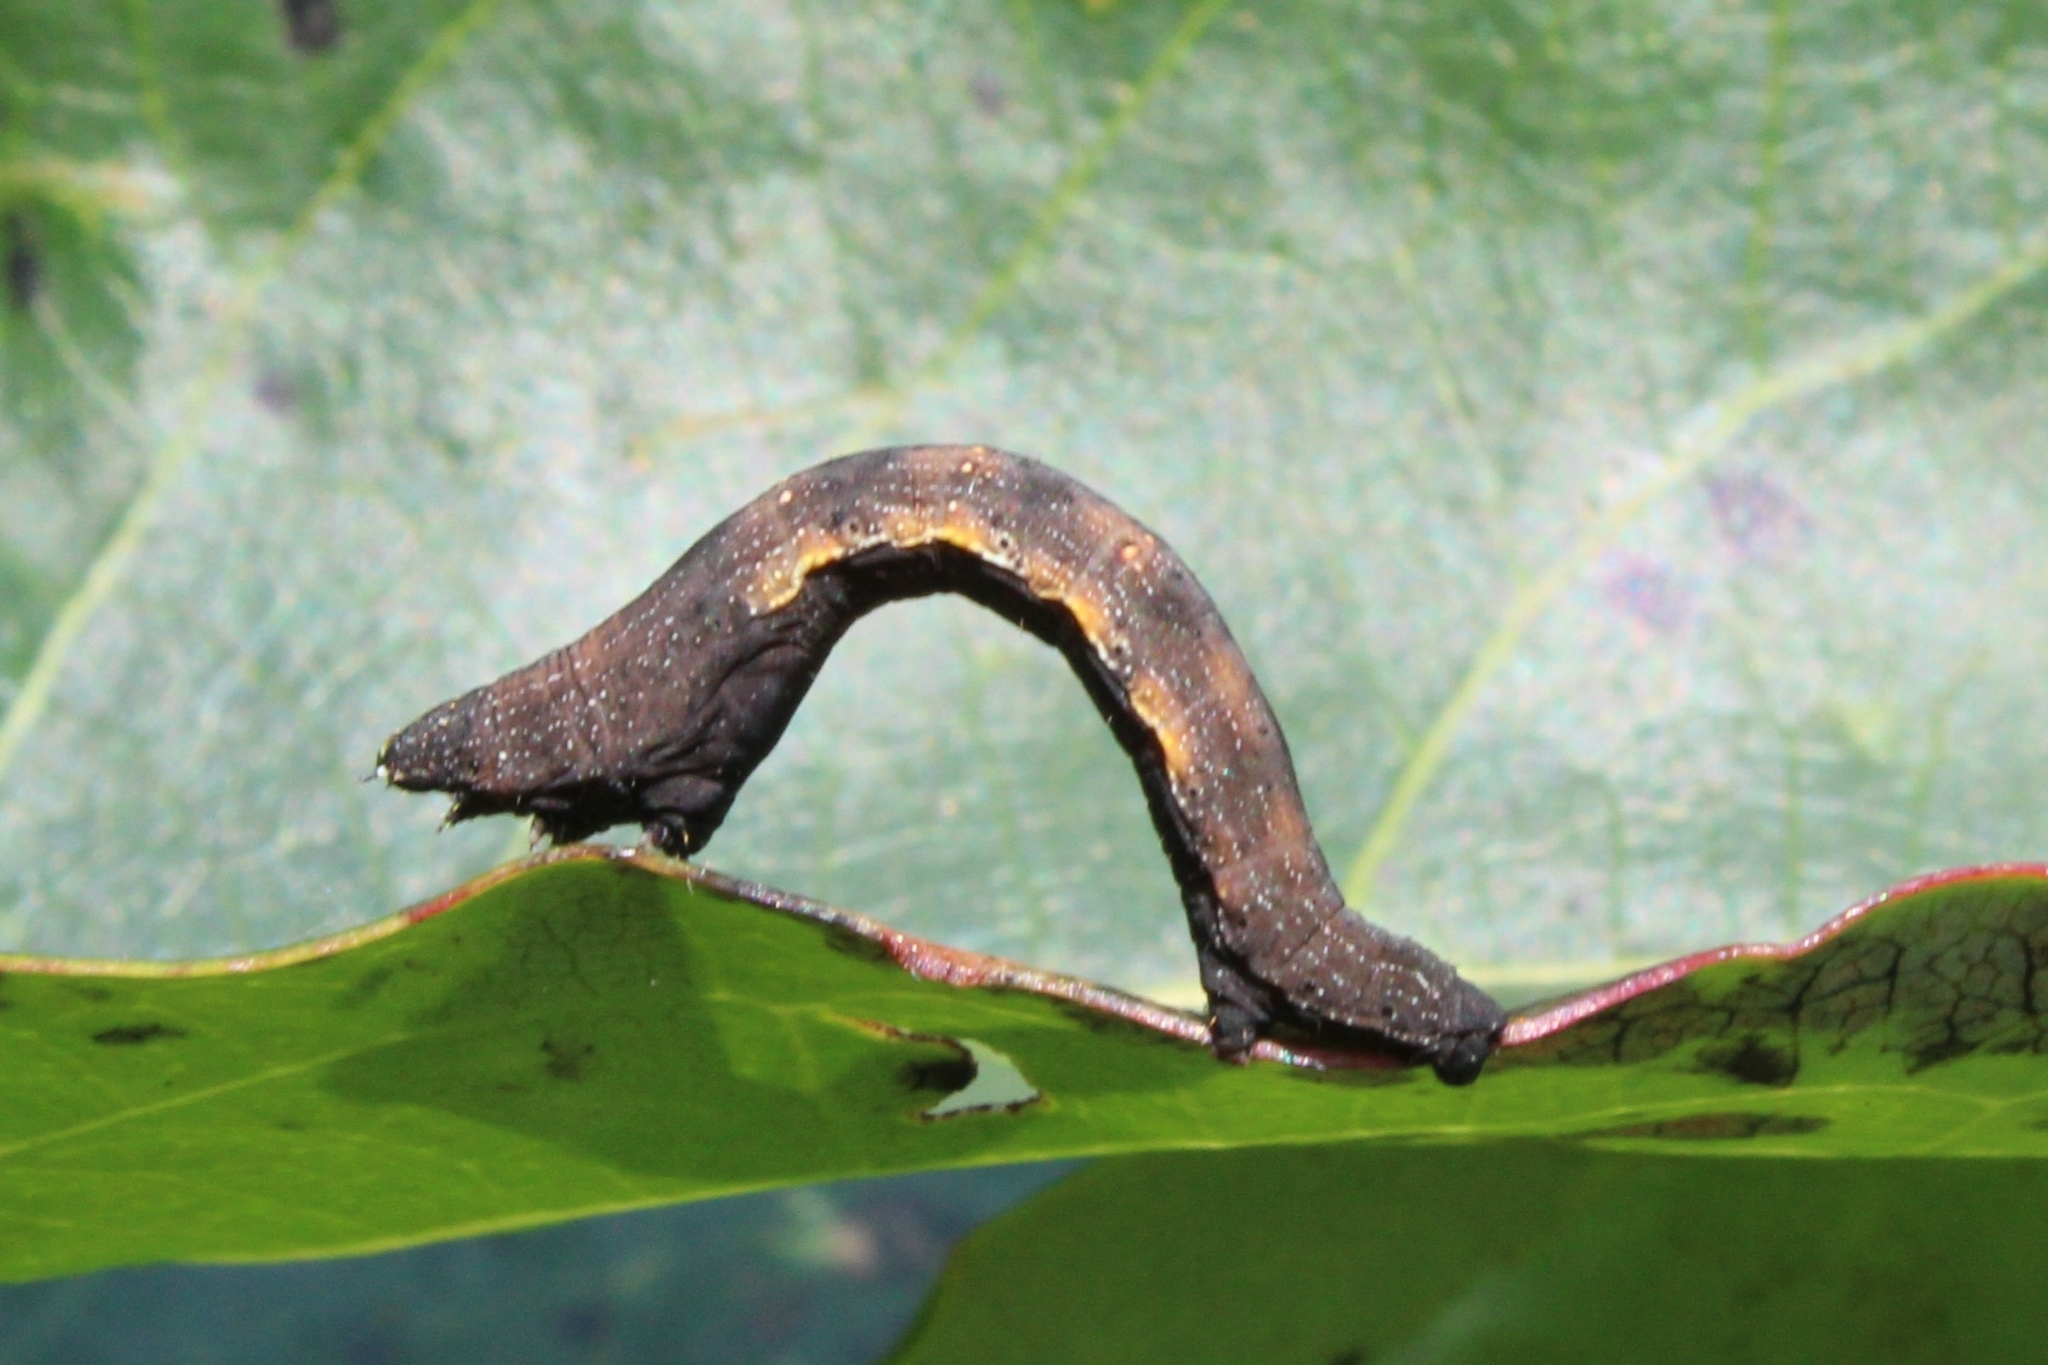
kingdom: Animalia
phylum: Arthropoda
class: Insecta
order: Lepidoptera
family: Geometridae
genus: Epimecis
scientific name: Epimecis hortaria
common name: Tulip-tree beauty
